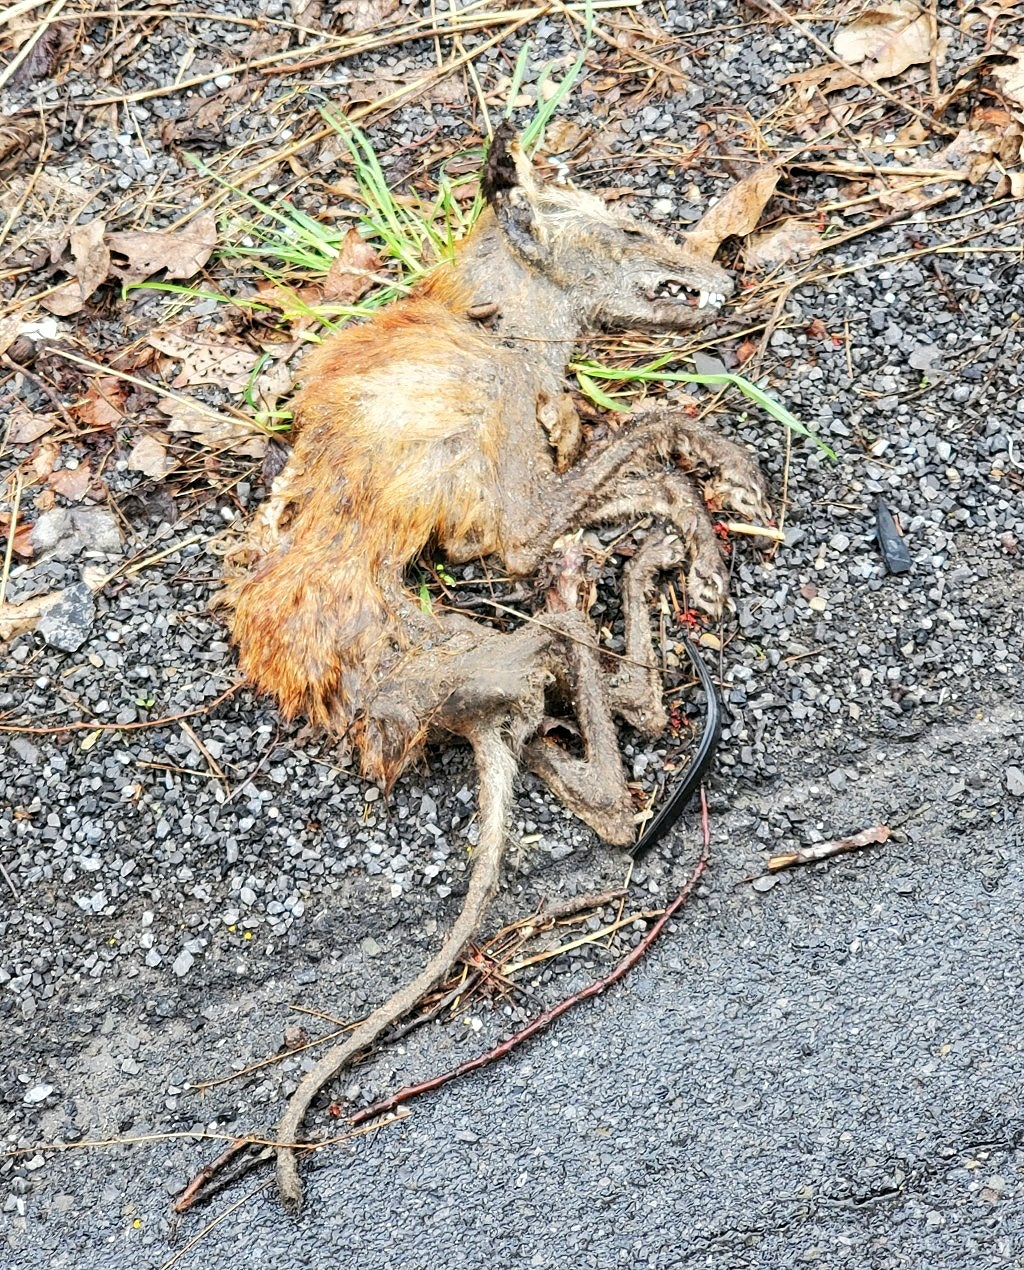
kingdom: Animalia
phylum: Chordata
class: Mammalia
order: Carnivora
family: Canidae
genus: Vulpes
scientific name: Vulpes vulpes
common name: Red fox
